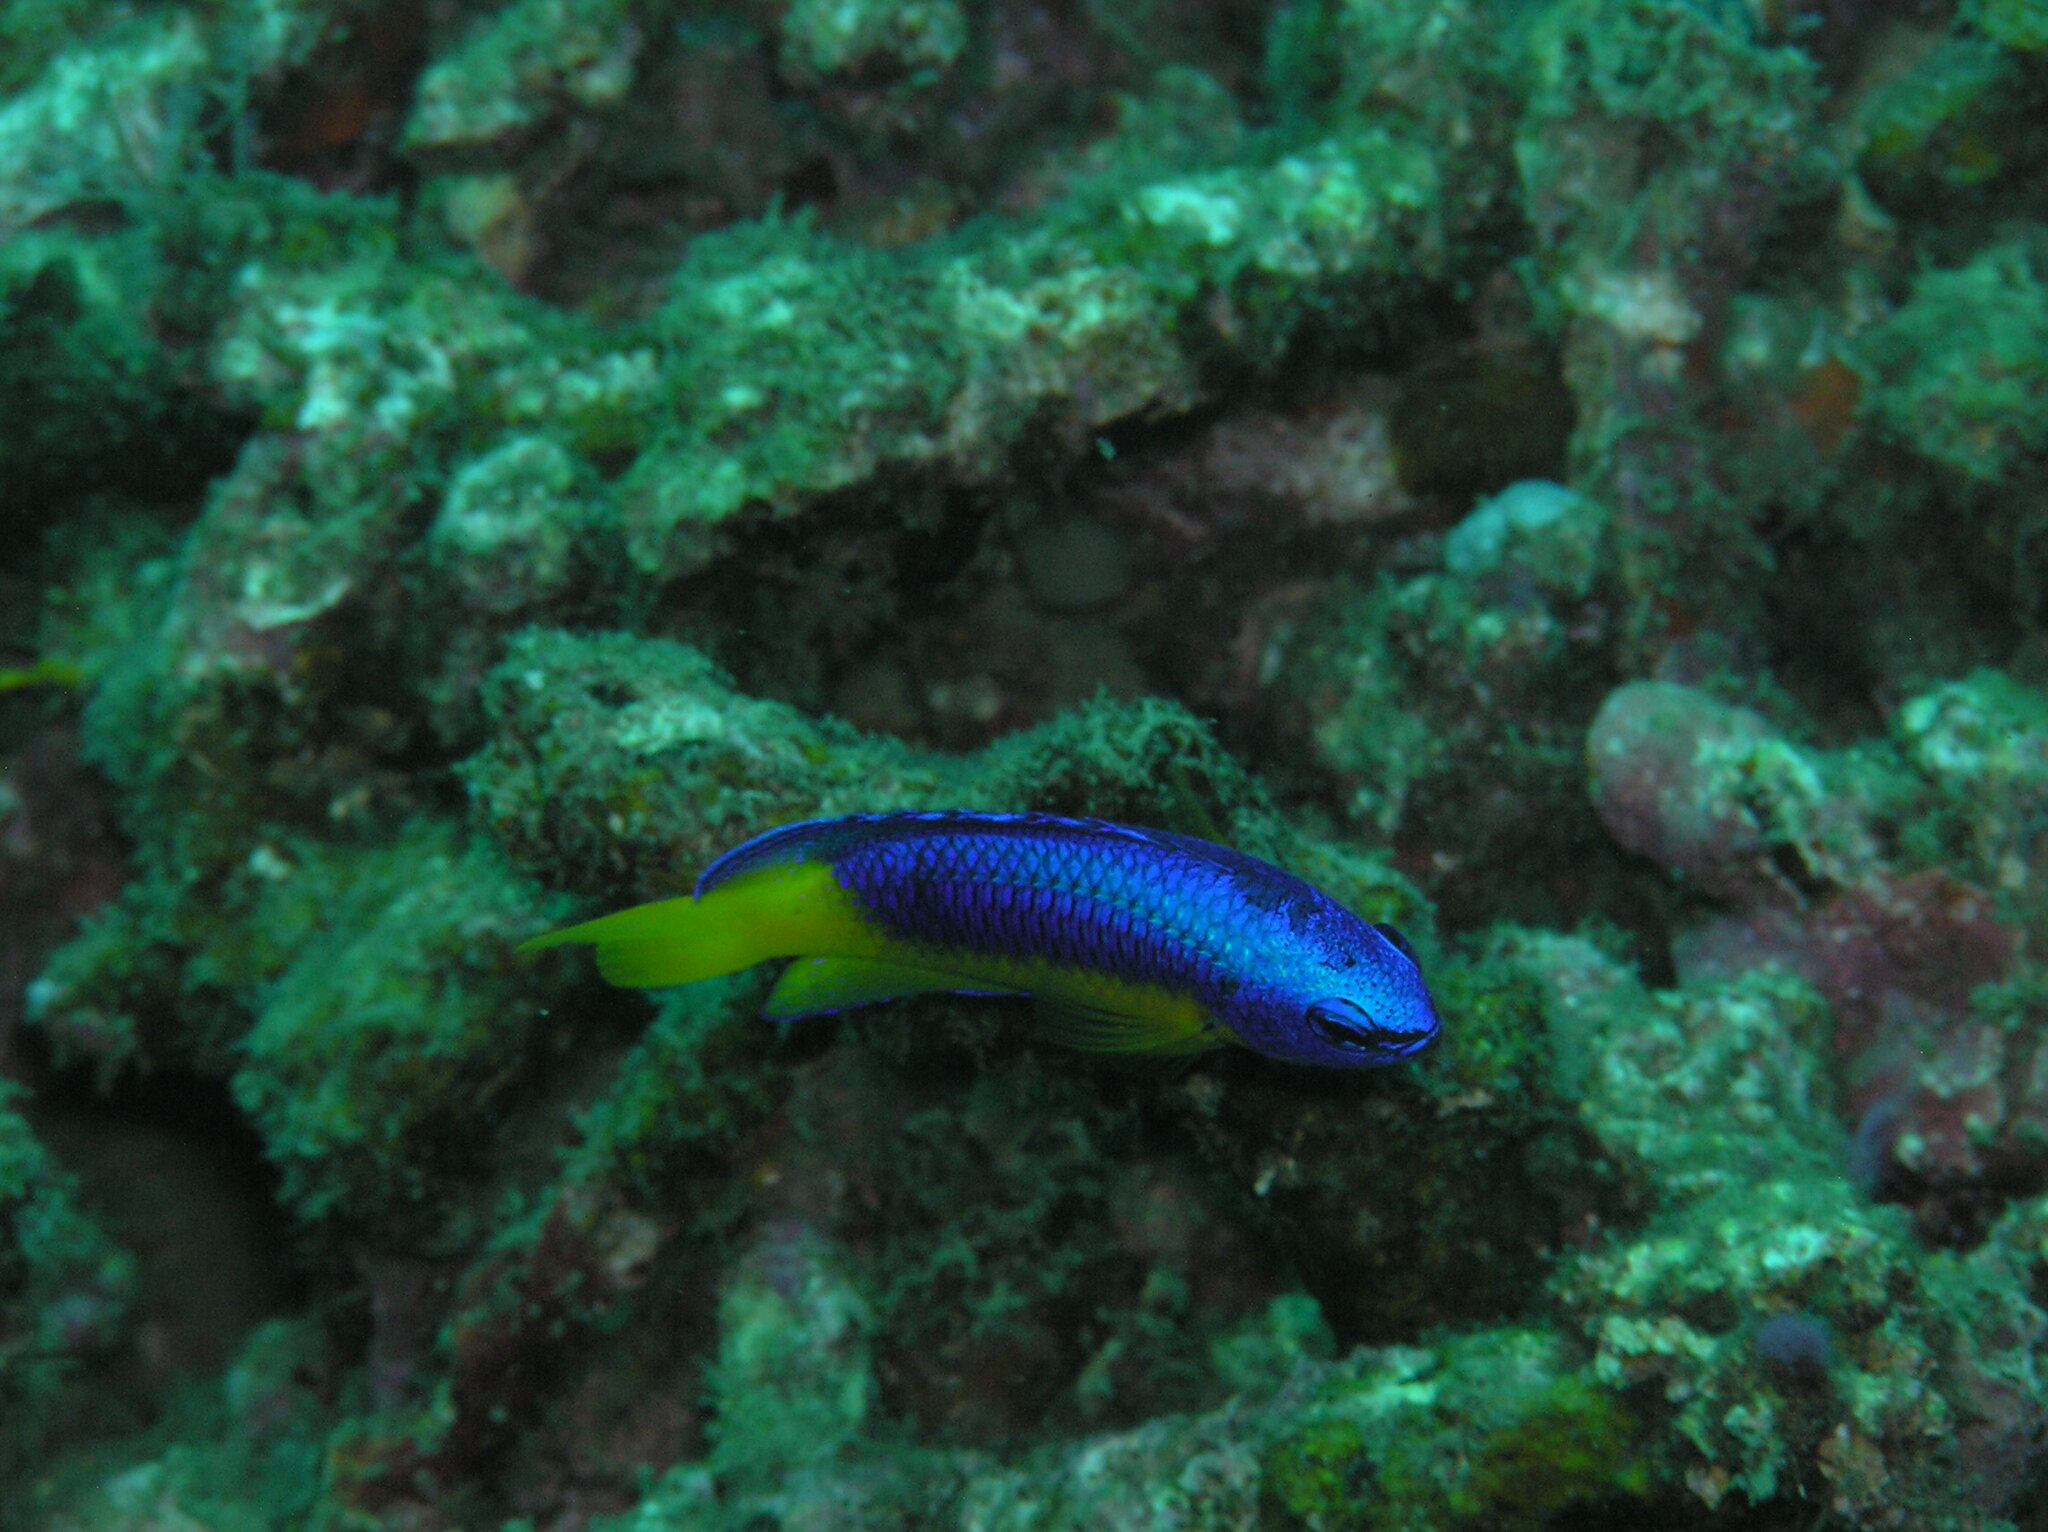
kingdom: Animalia
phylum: Chordata
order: Perciformes
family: Pomacentridae
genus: Pomacentrus
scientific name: Pomacentrus auriventris
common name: Goldbelly damsel
